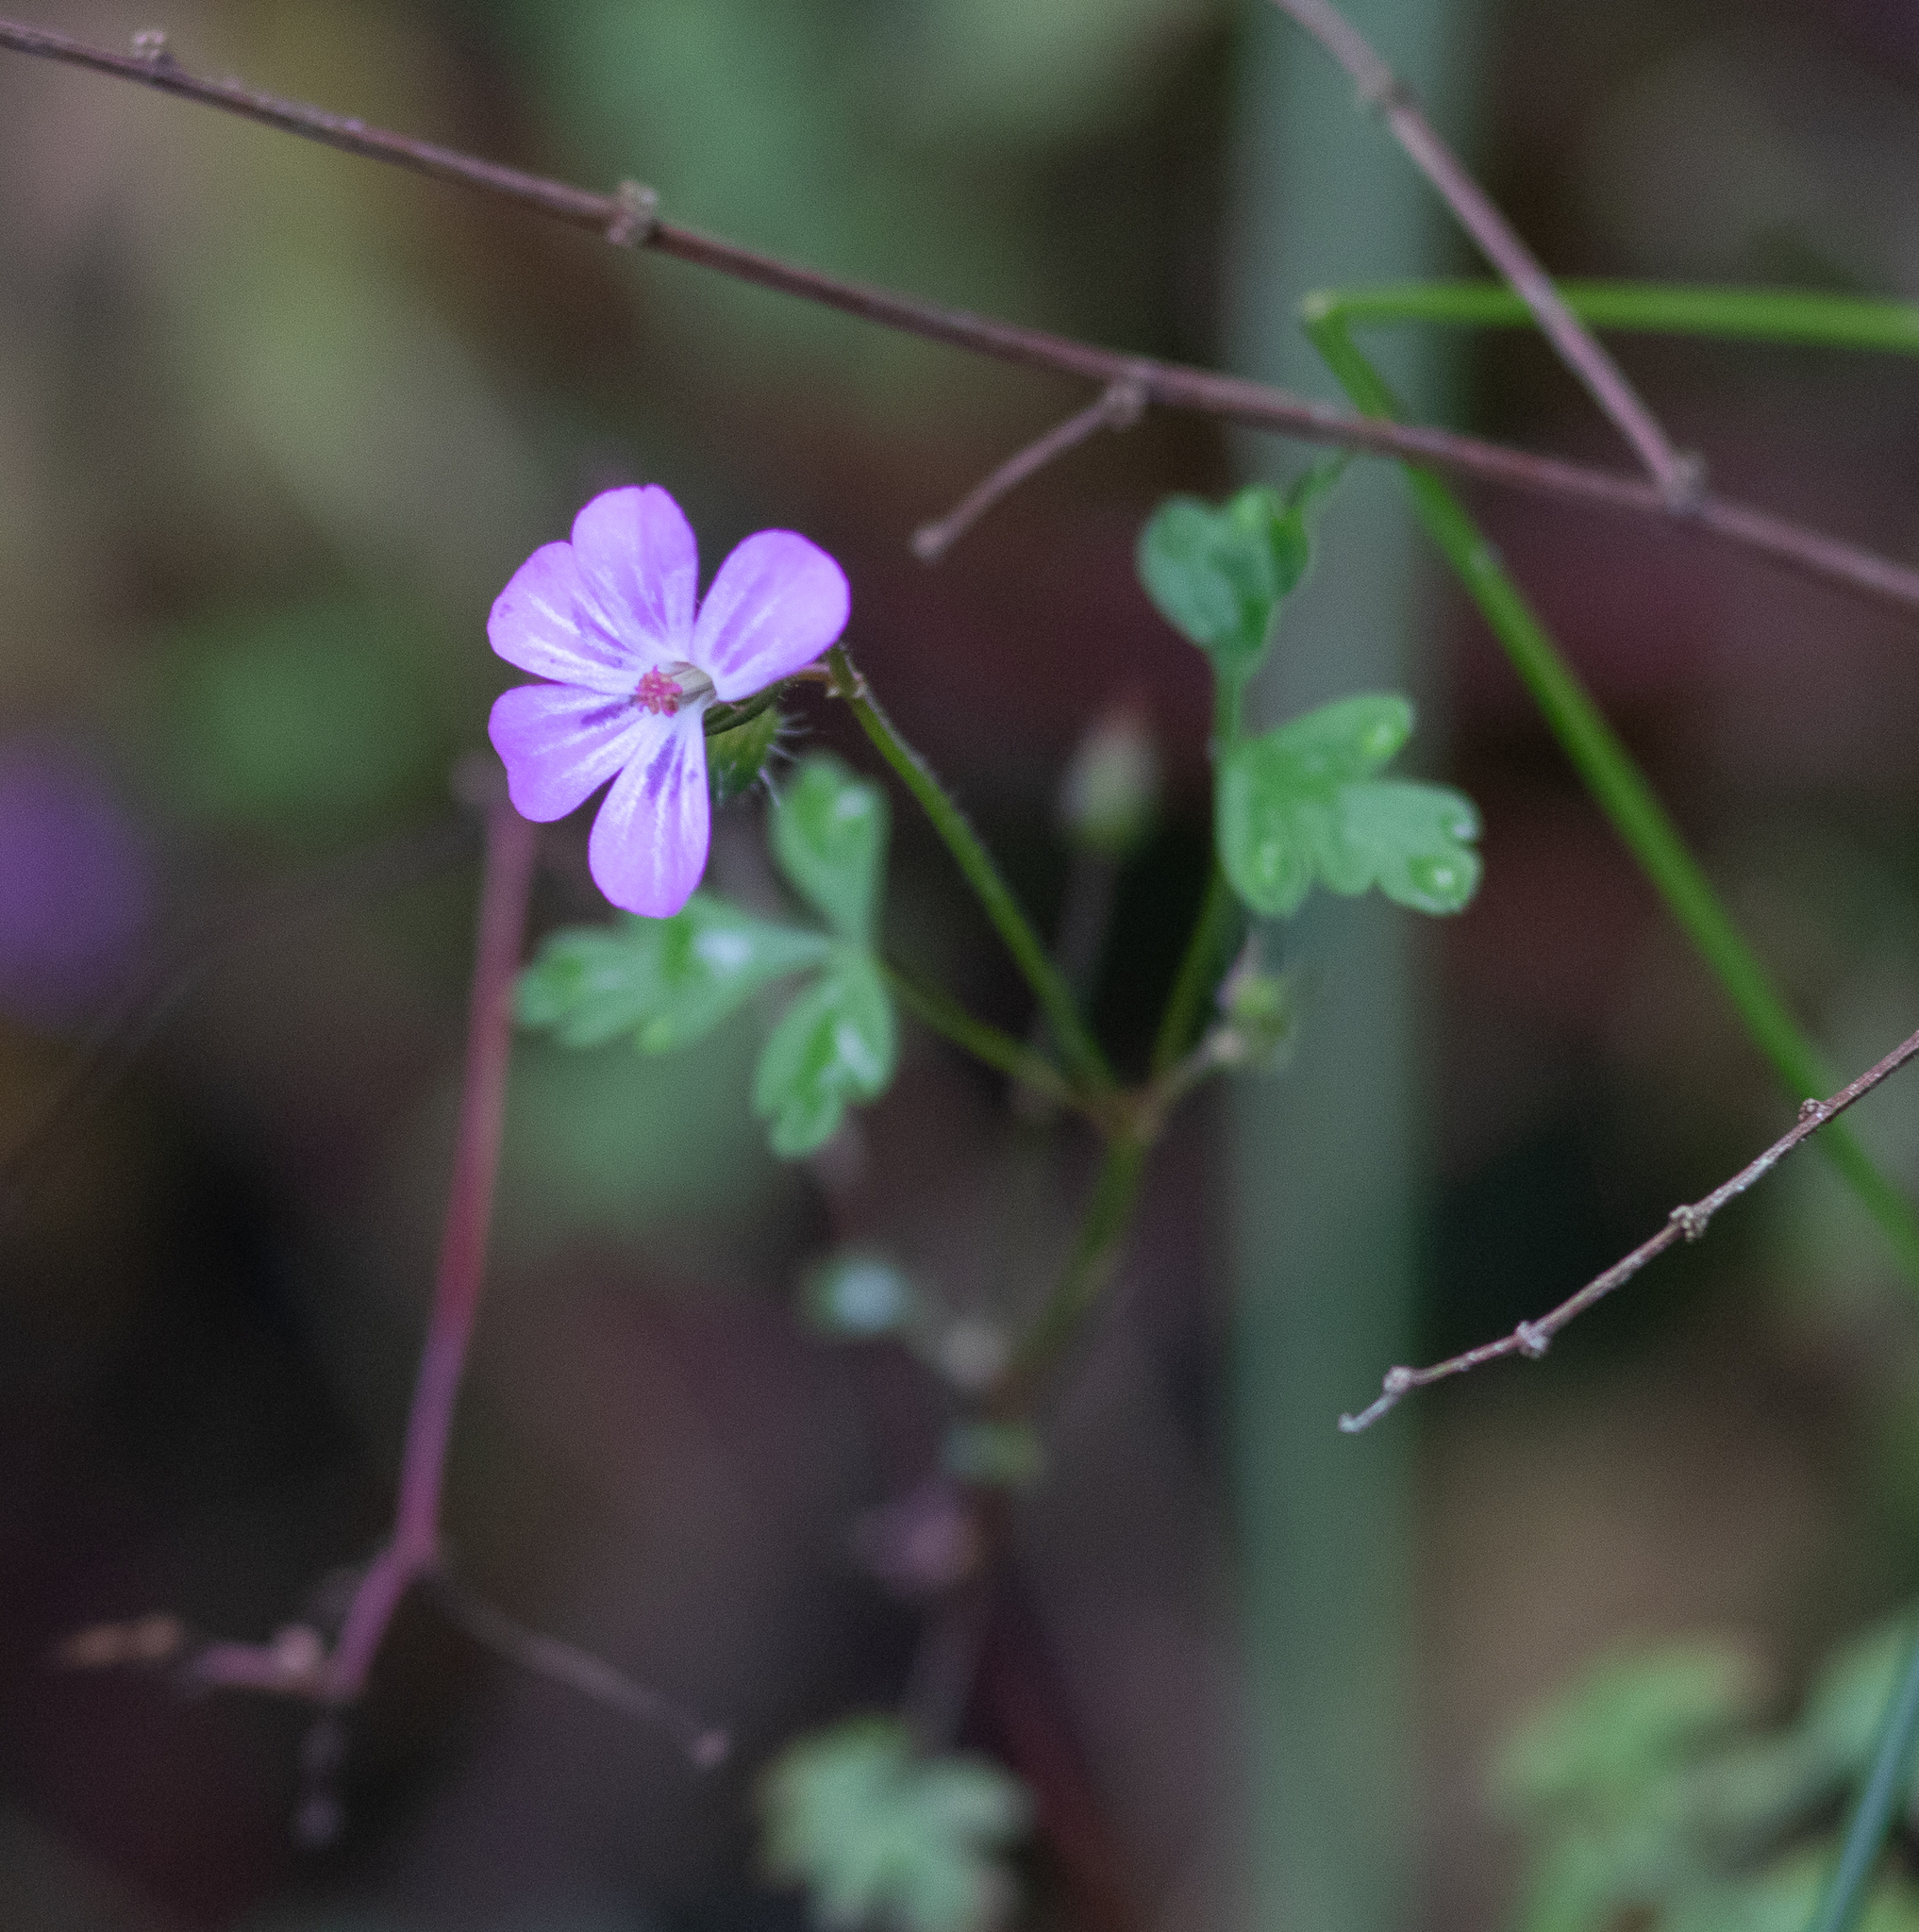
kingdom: Plantae
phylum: Tracheophyta
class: Magnoliopsida
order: Geraniales
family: Geraniaceae
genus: Geranium
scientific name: Geranium robertianum
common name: Herb-robert
